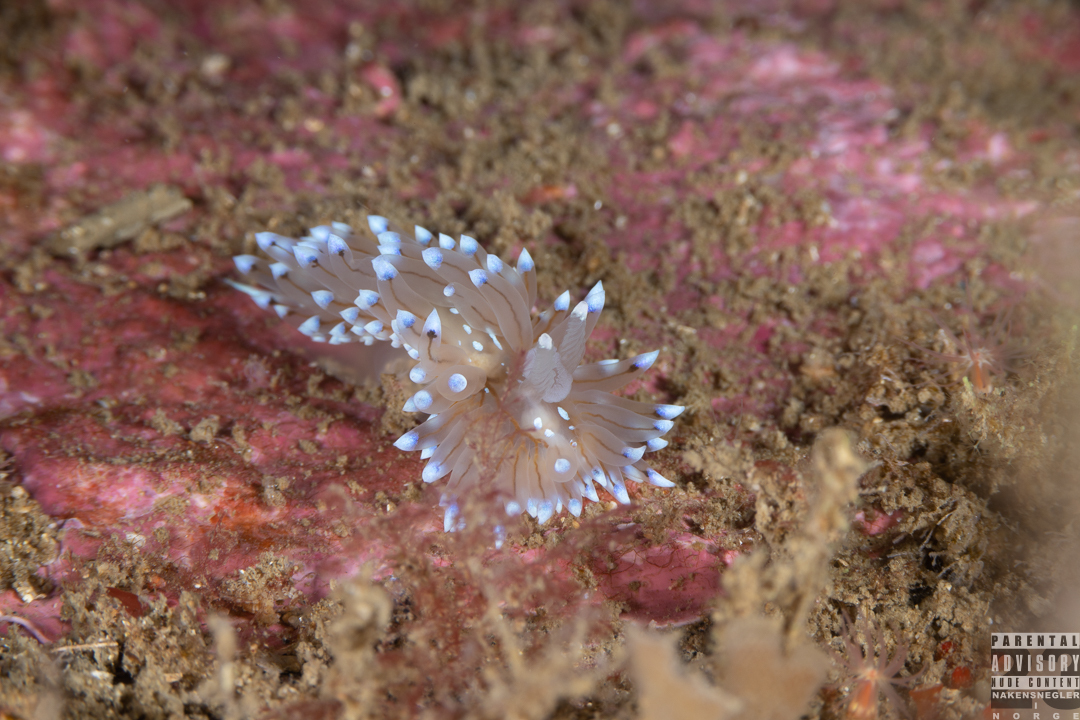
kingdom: Animalia
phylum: Mollusca
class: Gastropoda
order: Nudibranchia
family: Janolidae
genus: Antiopella
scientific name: Antiopella cristata
